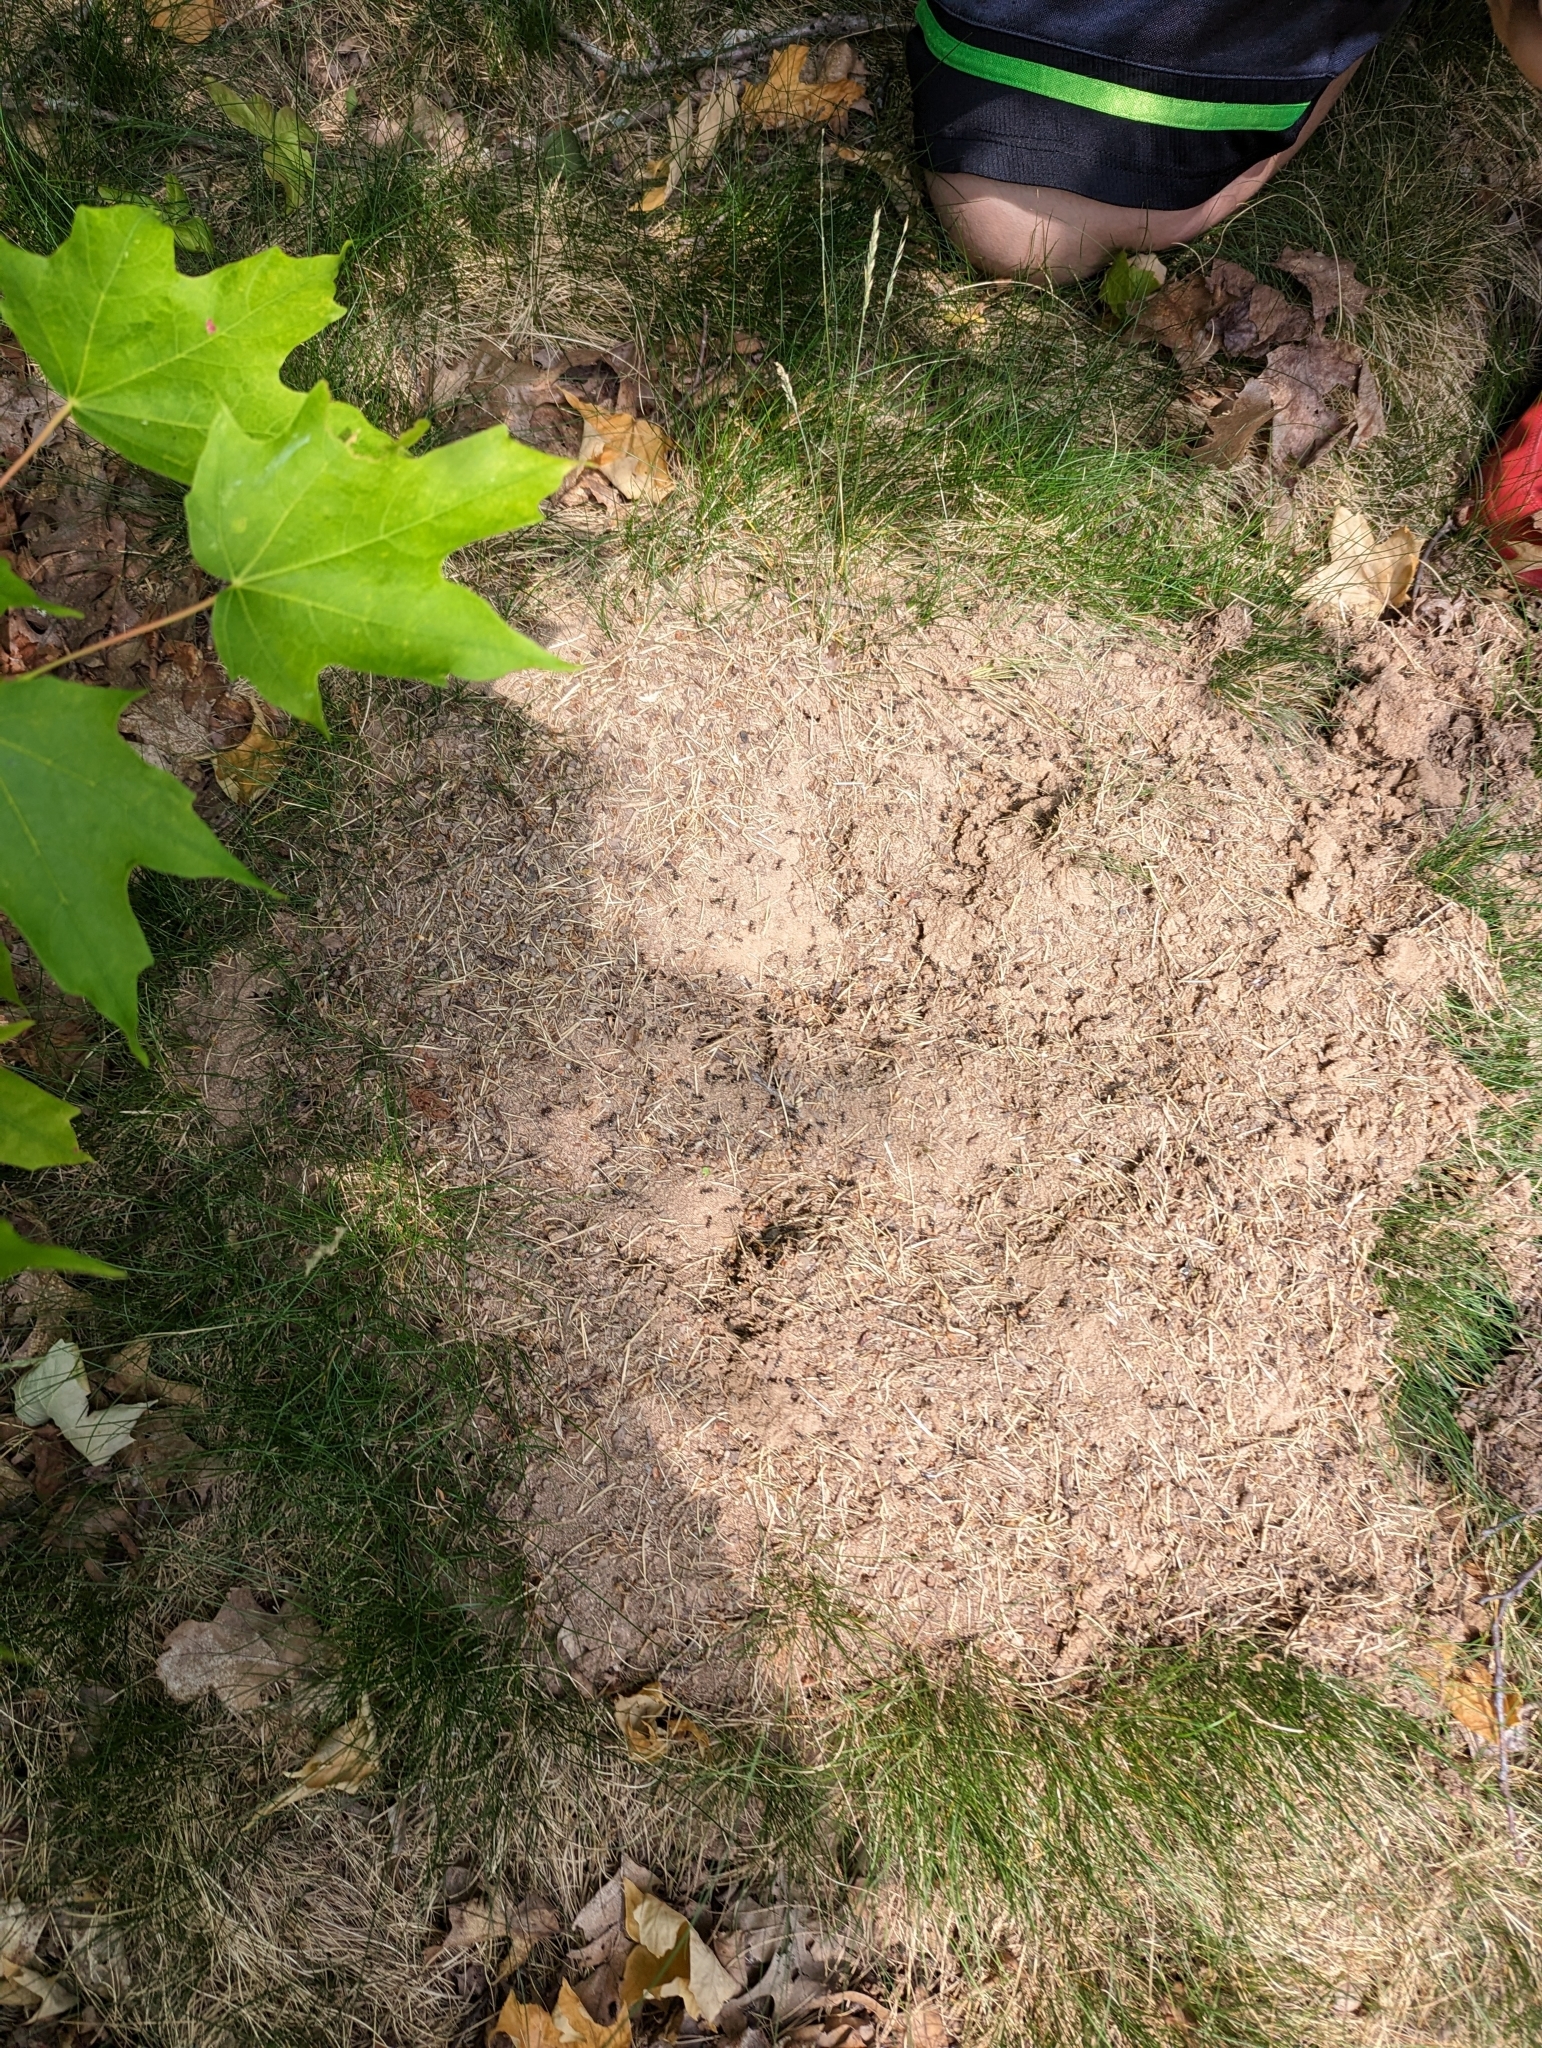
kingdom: Animalia
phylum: Arthropoda
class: Insecta
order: Hymenoptera
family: Formicidae
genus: Formica
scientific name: Formica subsericea
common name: Silky field ant
